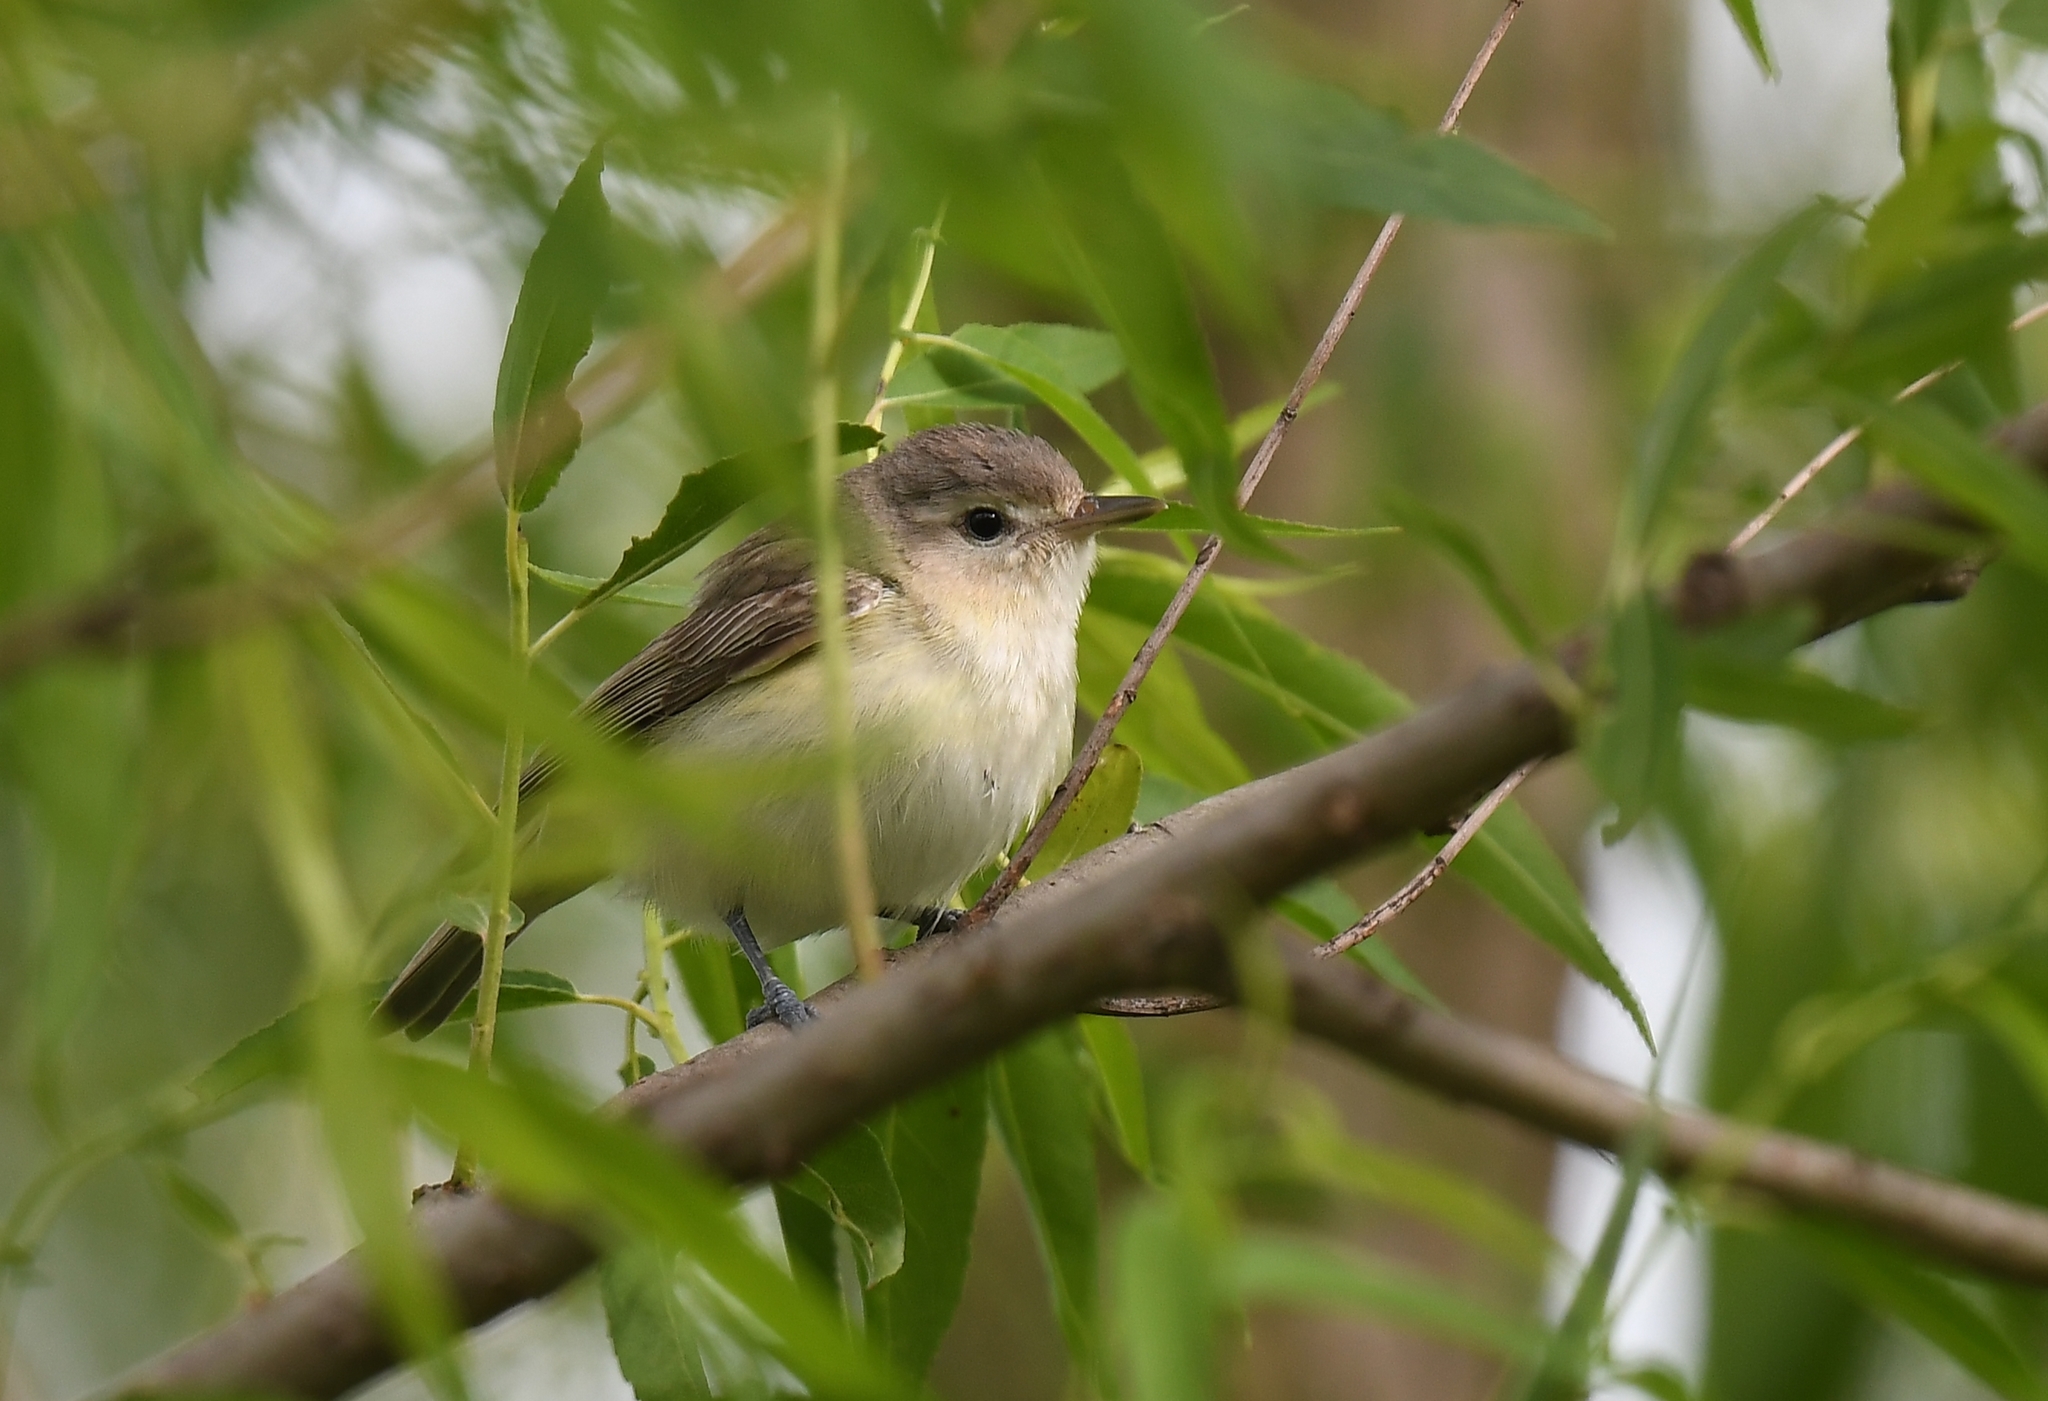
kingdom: Animalia
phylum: Chordata
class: Aves
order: Passeriformes
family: Vireonidae
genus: Vireo
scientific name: Vireo gilvus
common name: Warbling vireo
